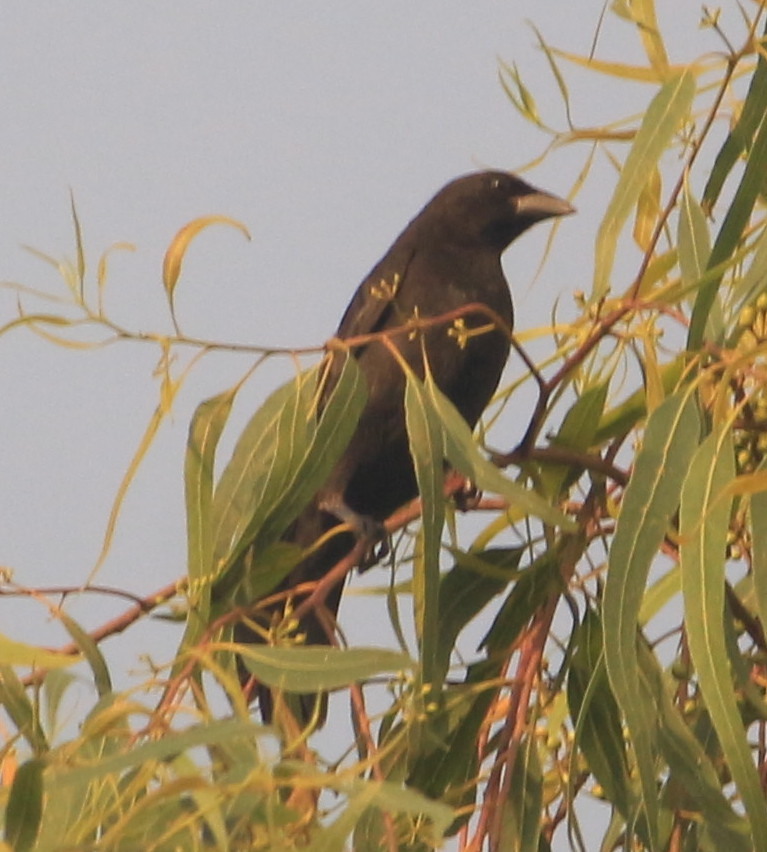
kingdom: Animalia
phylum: Chordata
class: Aves
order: Passeriformes
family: Icteridae
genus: Dives
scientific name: Dives dives
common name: Melodious blackbird
